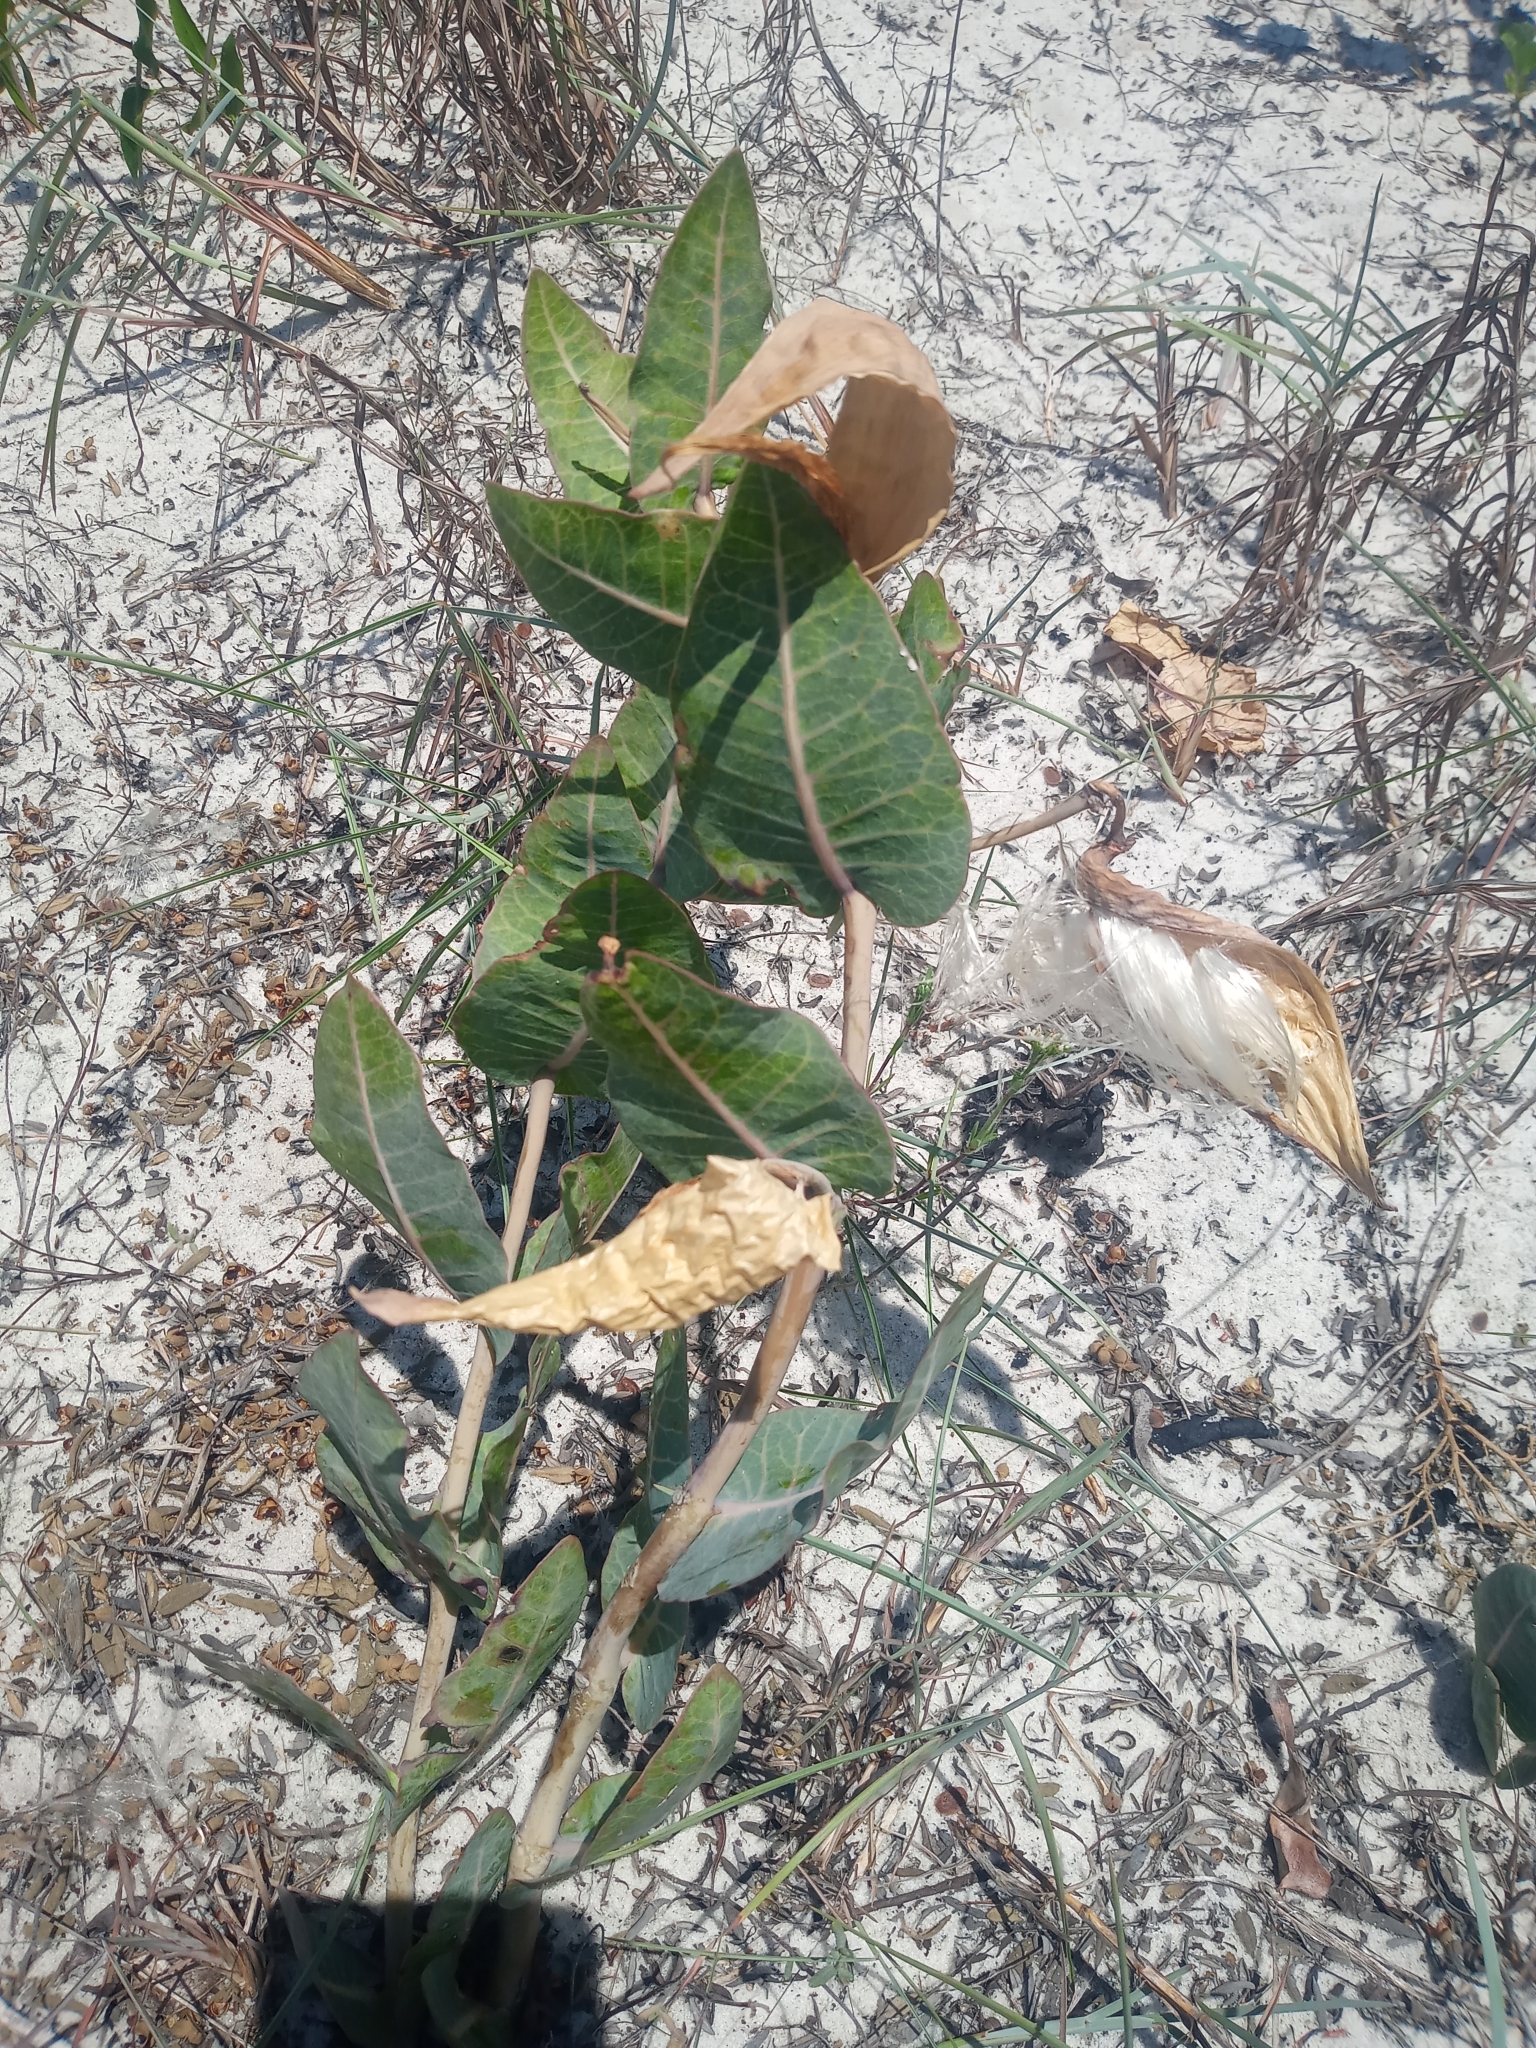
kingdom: Plantae
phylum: Tracheophyta
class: Magnoliopsida
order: Gentianales
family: Apocynaceae
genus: Asclepias
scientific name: Asclepias humistrata
